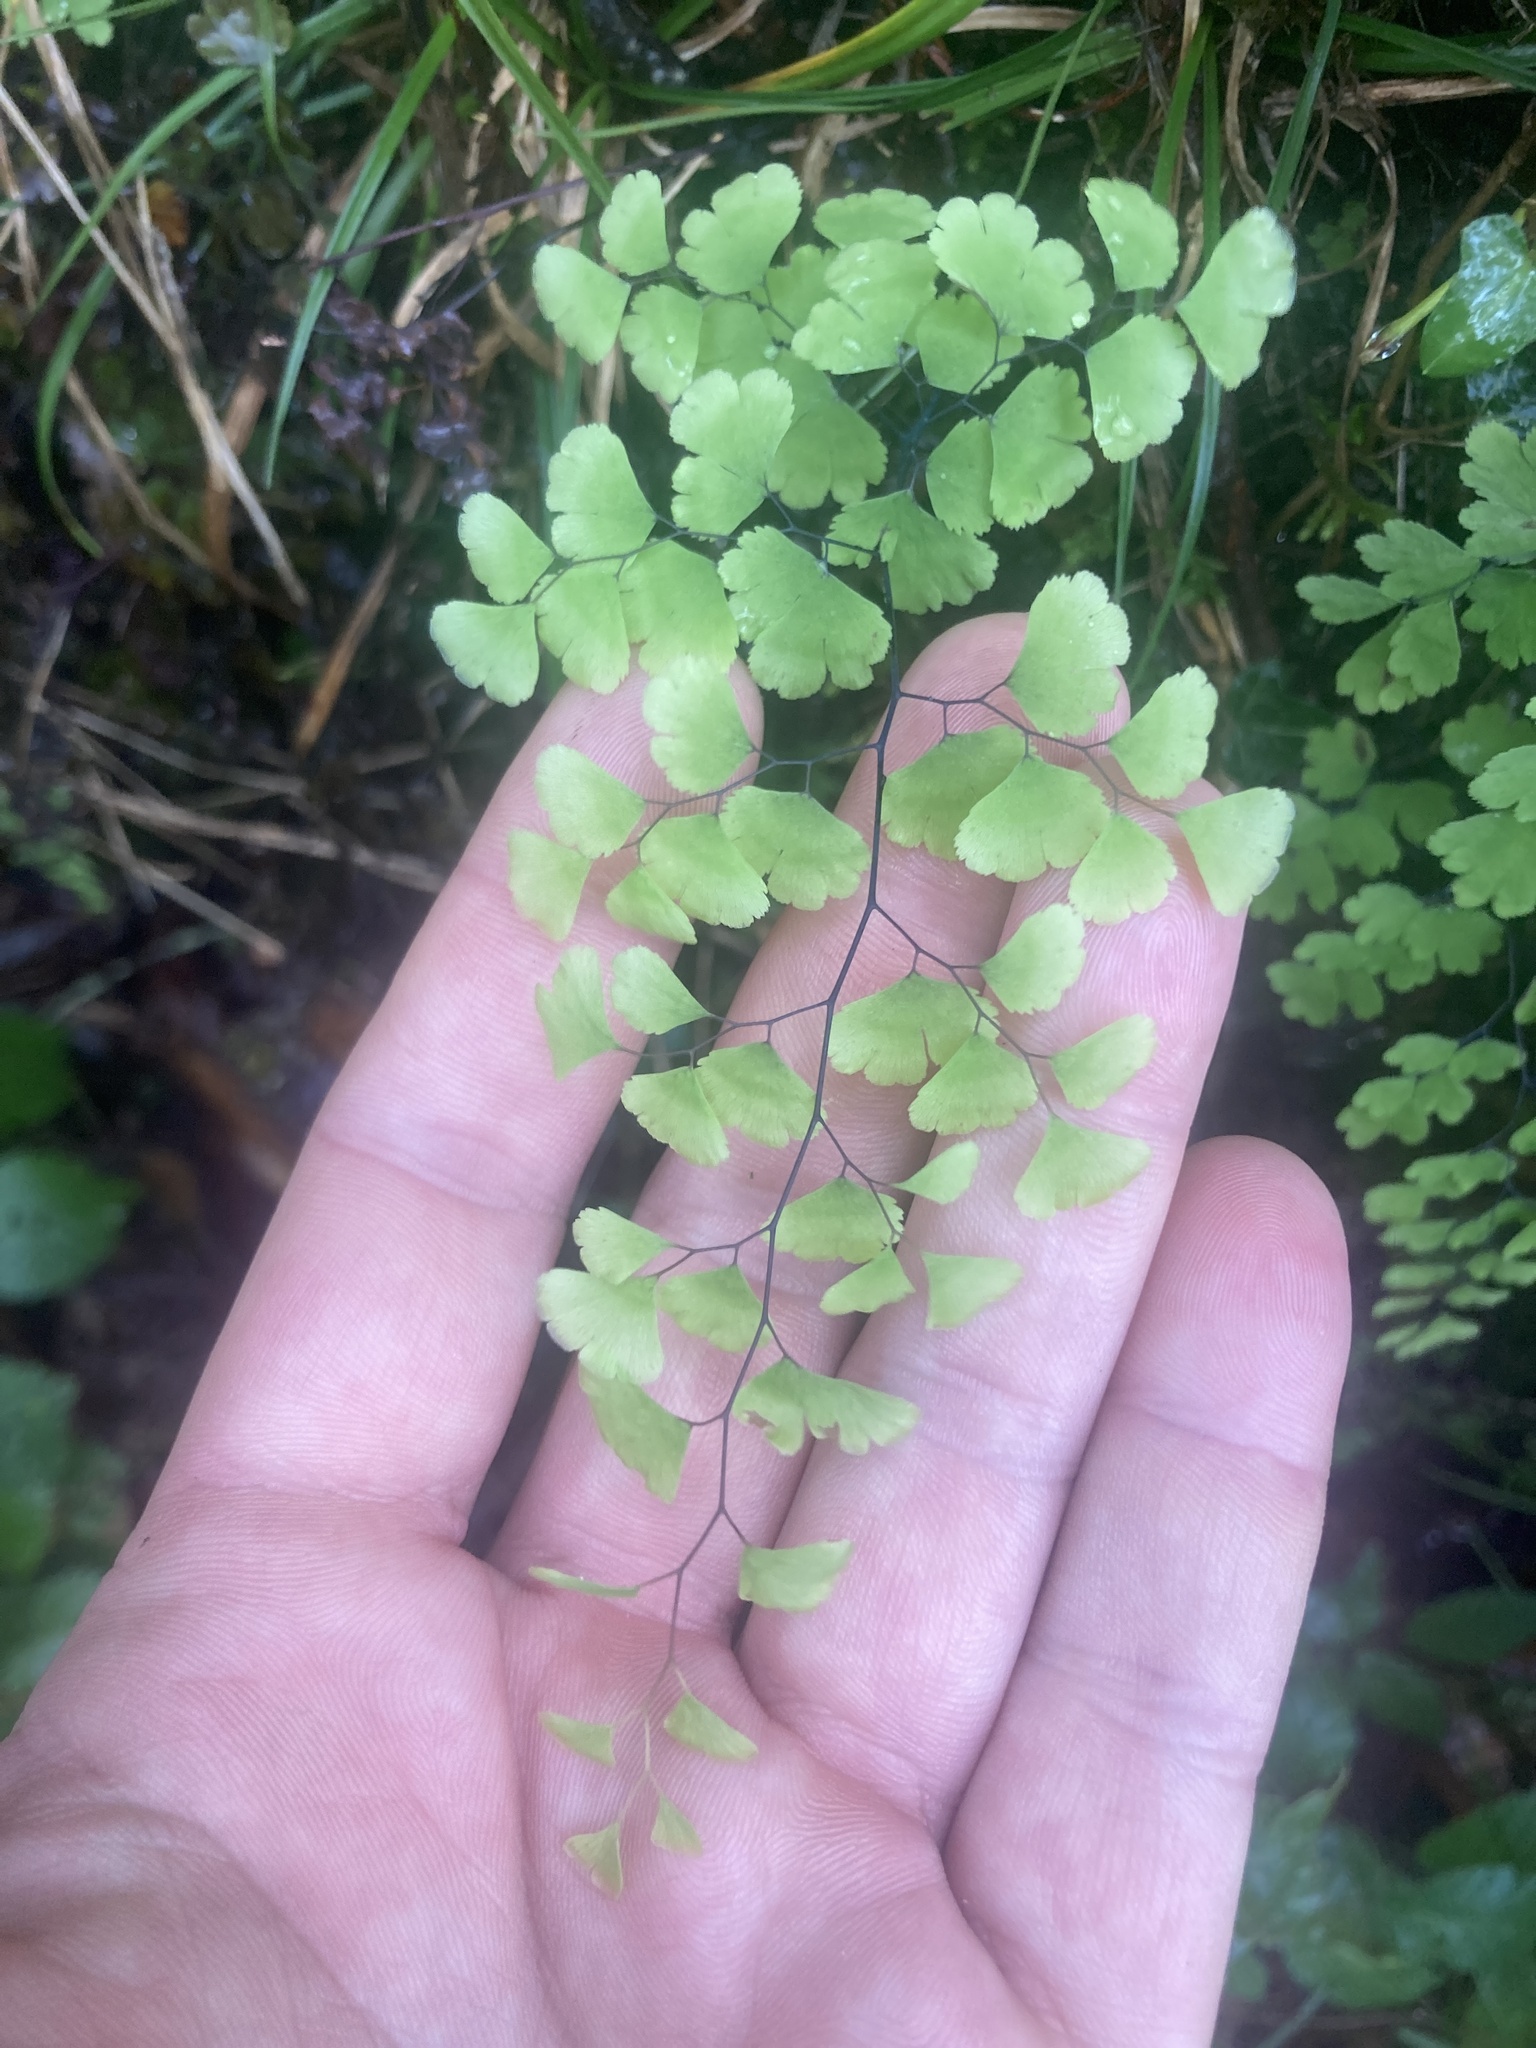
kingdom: Plantae
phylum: Tracheophyta
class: Polypodiopsida
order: Polypodiales
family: Pteridaceae
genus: Adiantum
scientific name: Adiantum capillus-veneris
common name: Maidenhair fern
